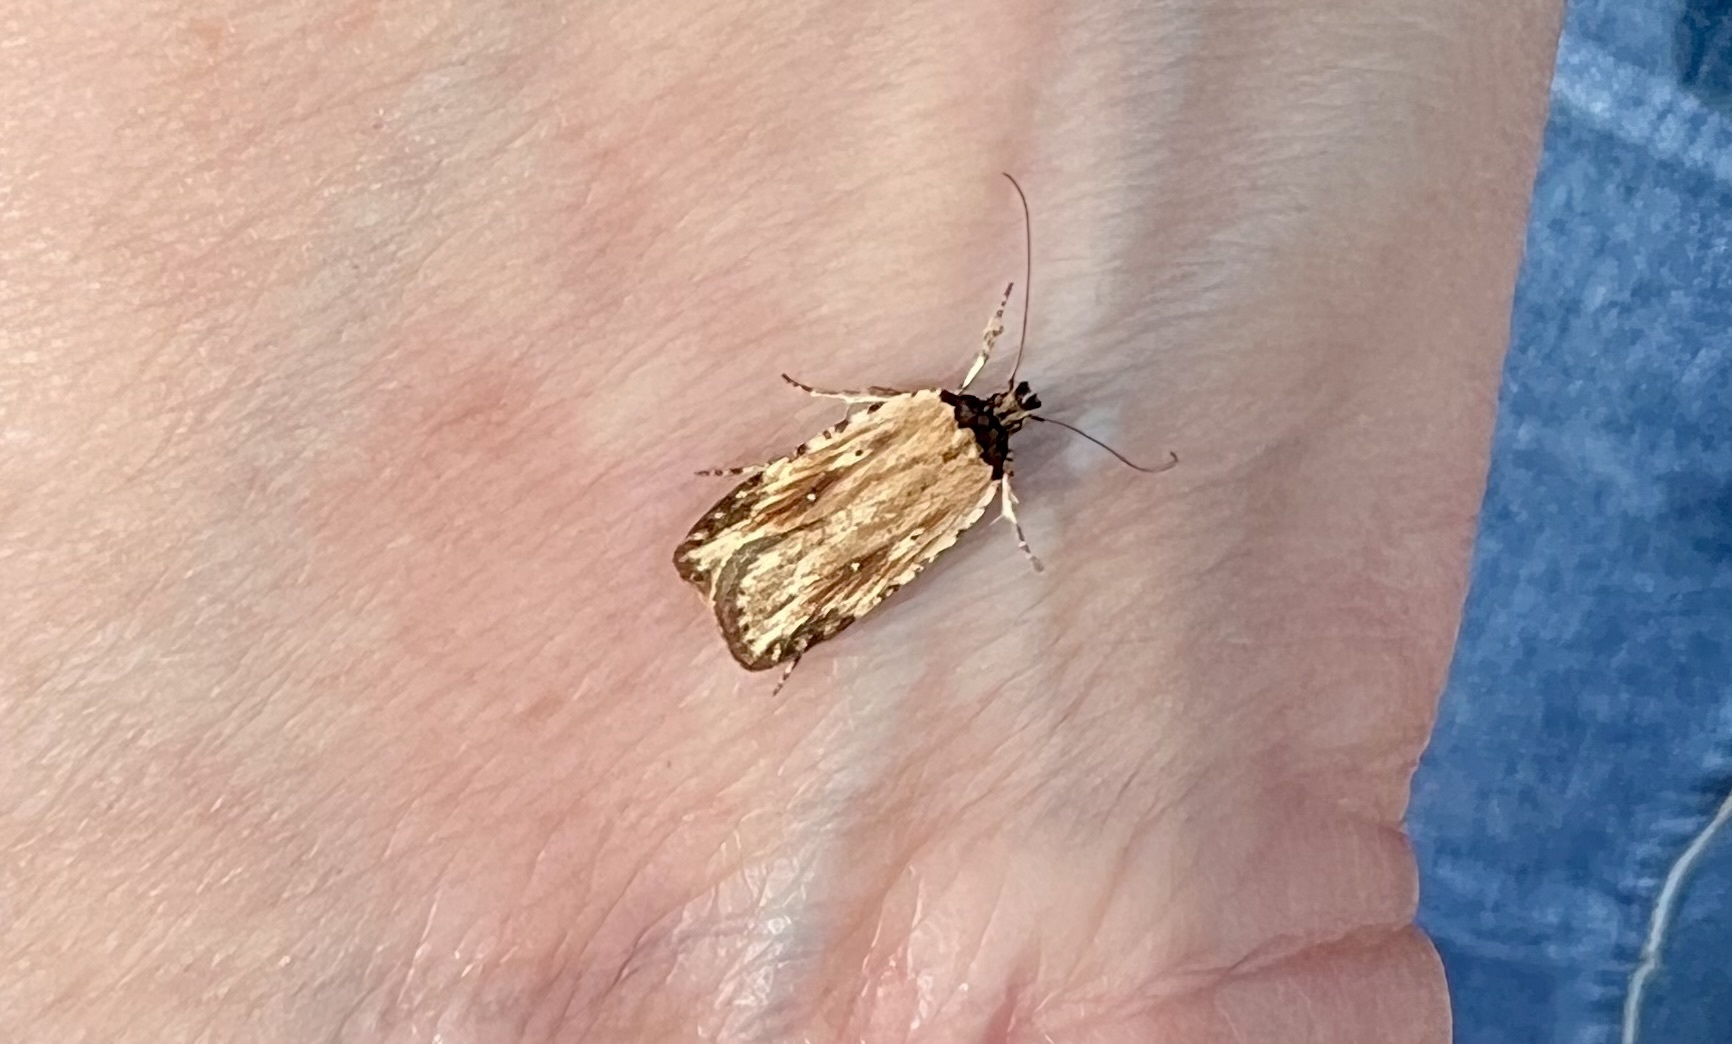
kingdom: Animalia
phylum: Arthropoda
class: Insecta
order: Lepidoptera
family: Depressariidae
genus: Agonopterix
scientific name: Agonopterix atrodorsella
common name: Beggartick leaffolder
